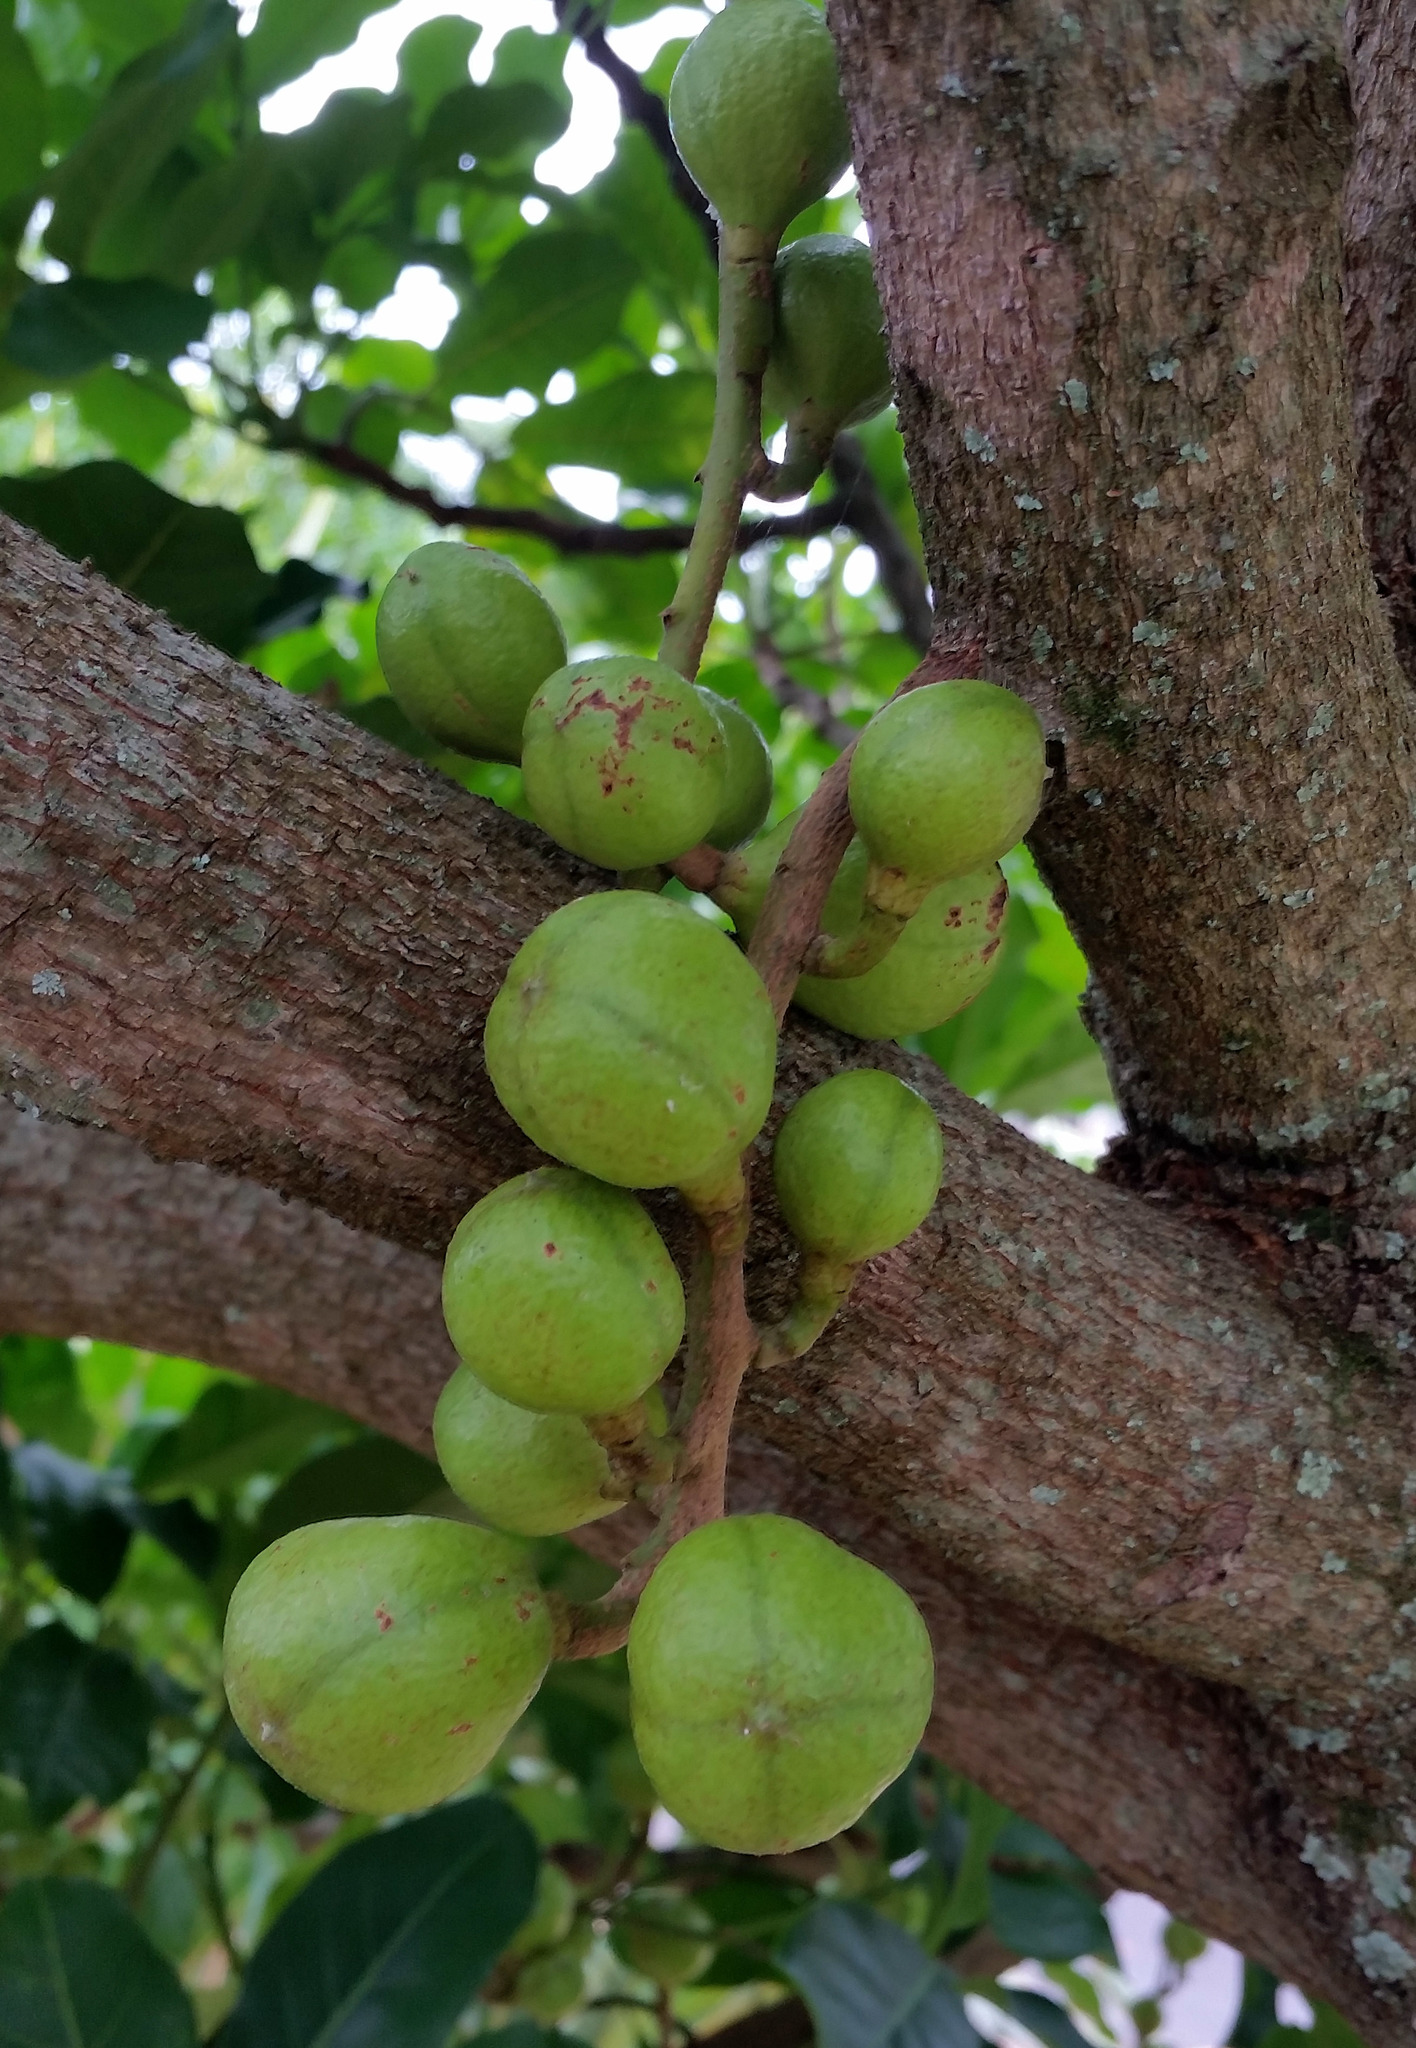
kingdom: Plantae
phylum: Tracheophyta
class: Magnoliopsida
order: Sapindales
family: Meliaceae
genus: Didymocheton
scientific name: Didymocheton spectabilis
